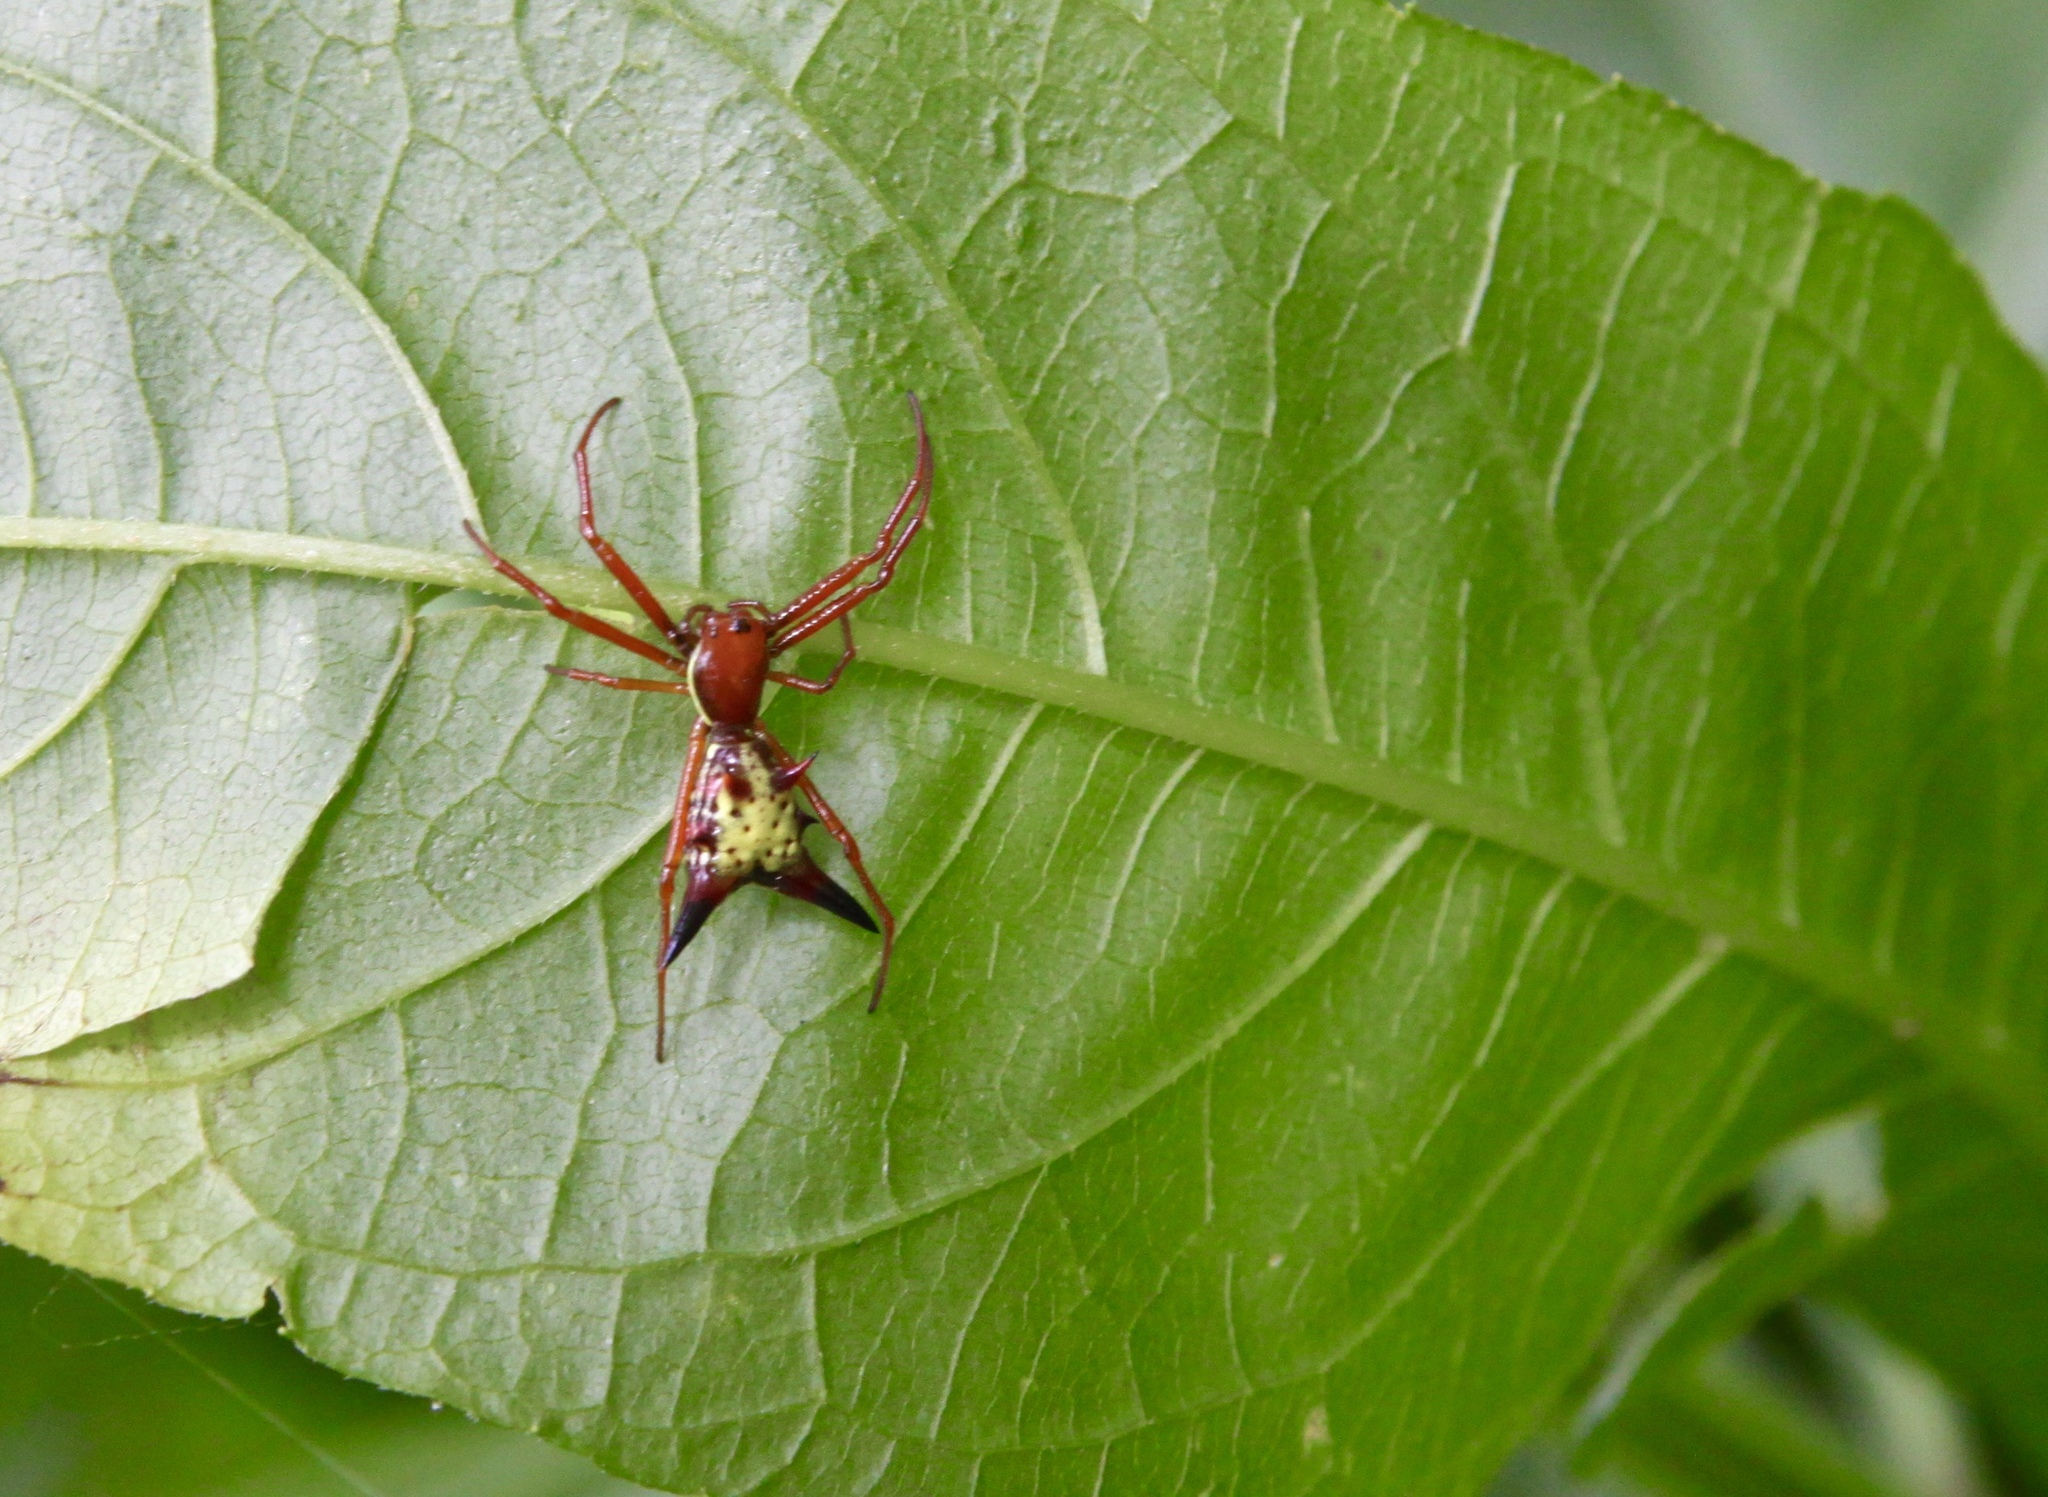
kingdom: Animalia
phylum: Arthropoda
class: Arachnida
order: Araneae
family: Araneidae
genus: Micrathena
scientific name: Micrathena sagittata
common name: Orb weavers
